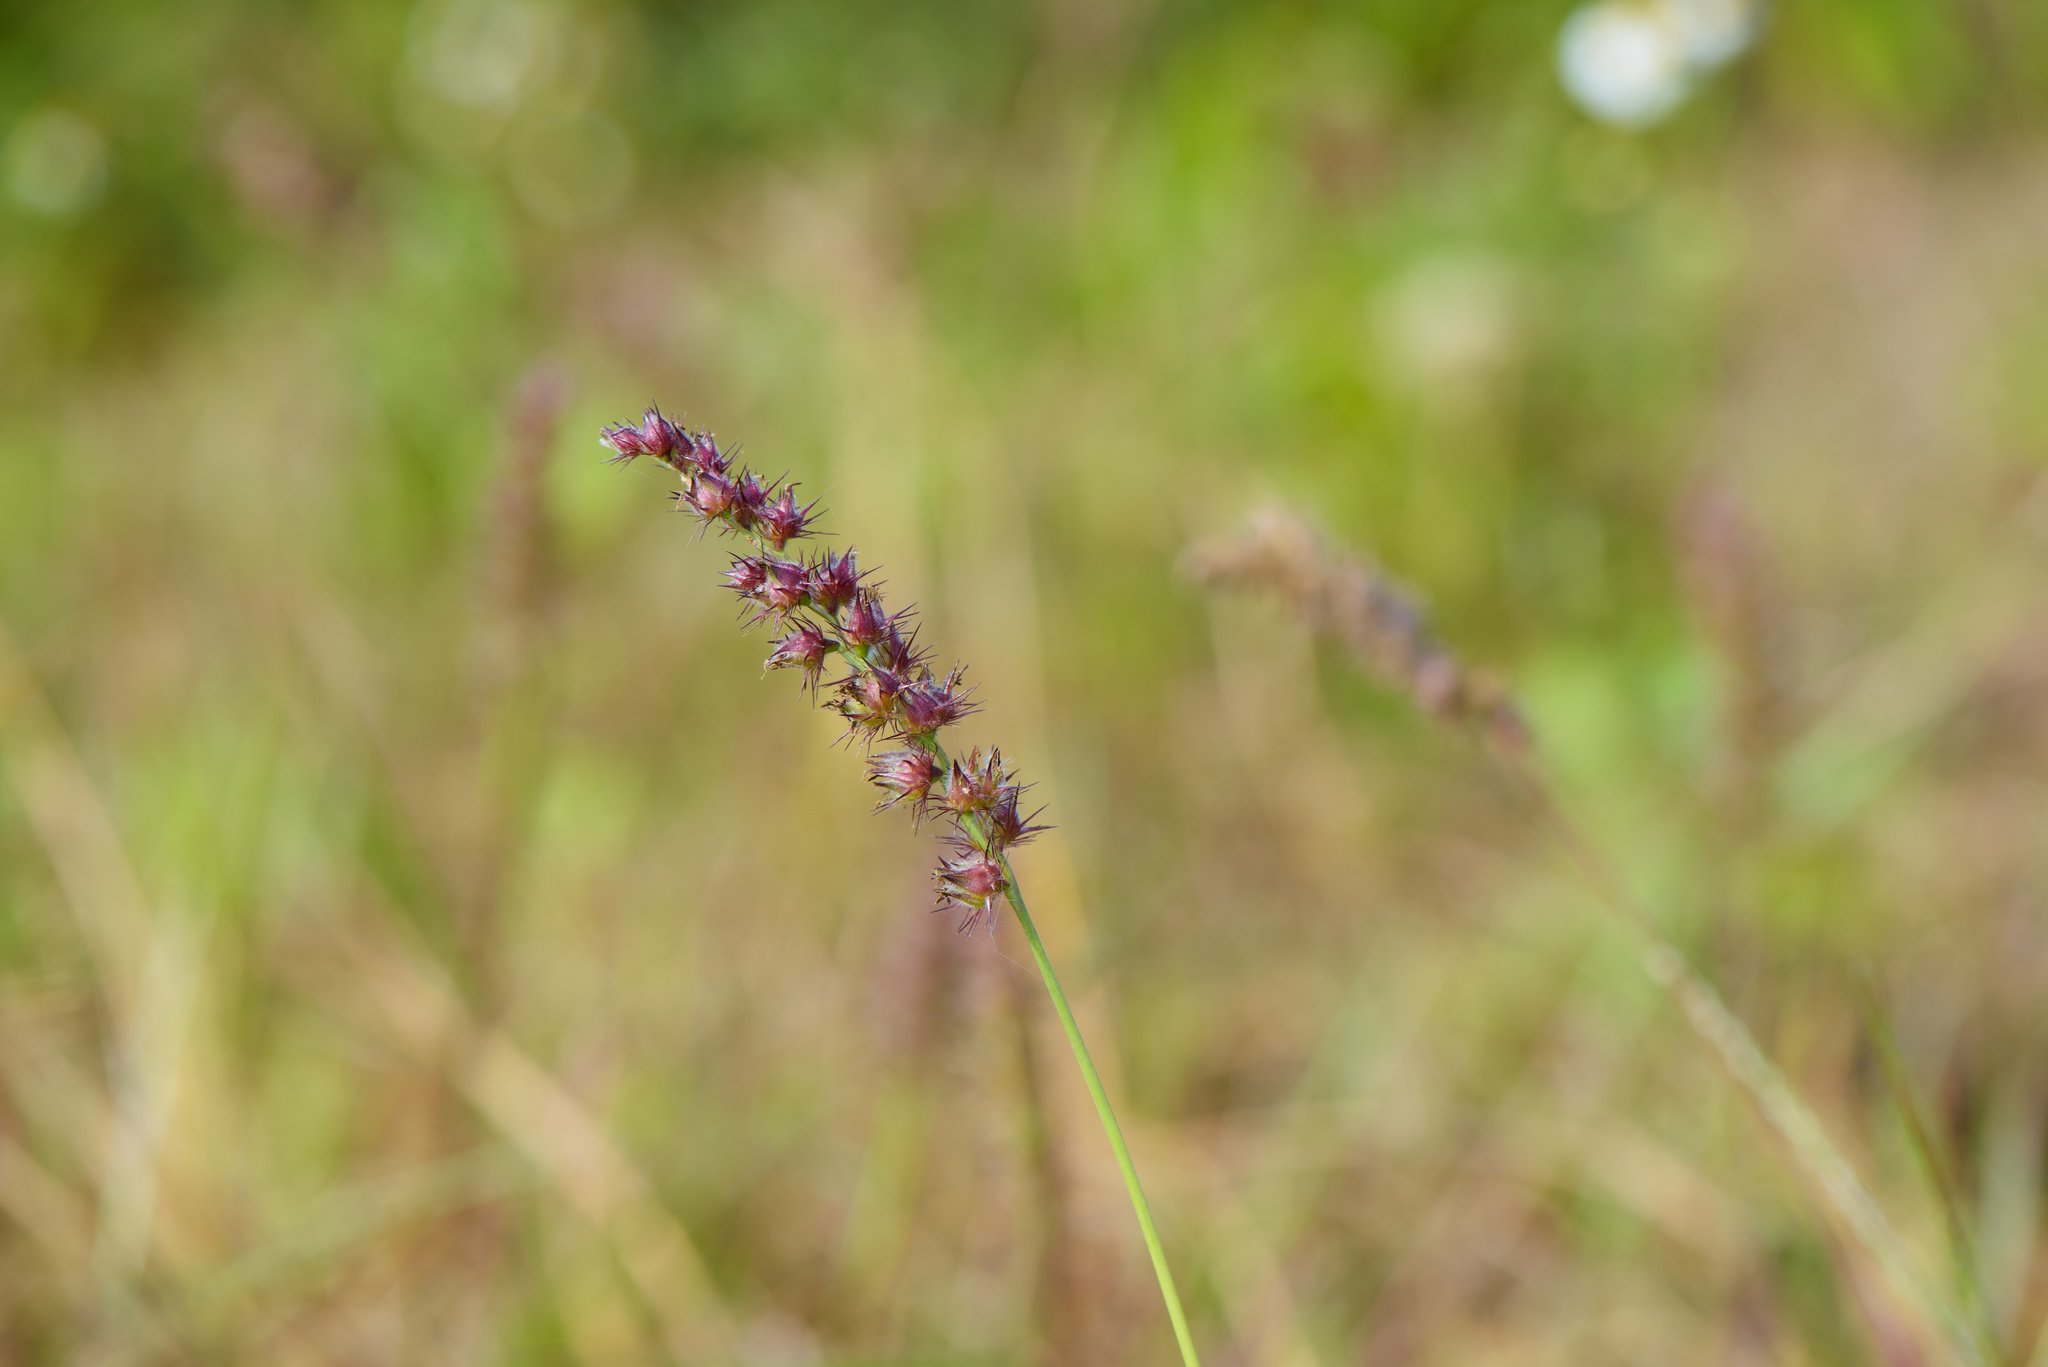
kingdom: Plantae
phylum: Tracheophyta
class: Liliopsida
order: Poales
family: Poaceae
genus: Cenchrus
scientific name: Cenchrus echinatus
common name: Southern sandbur
